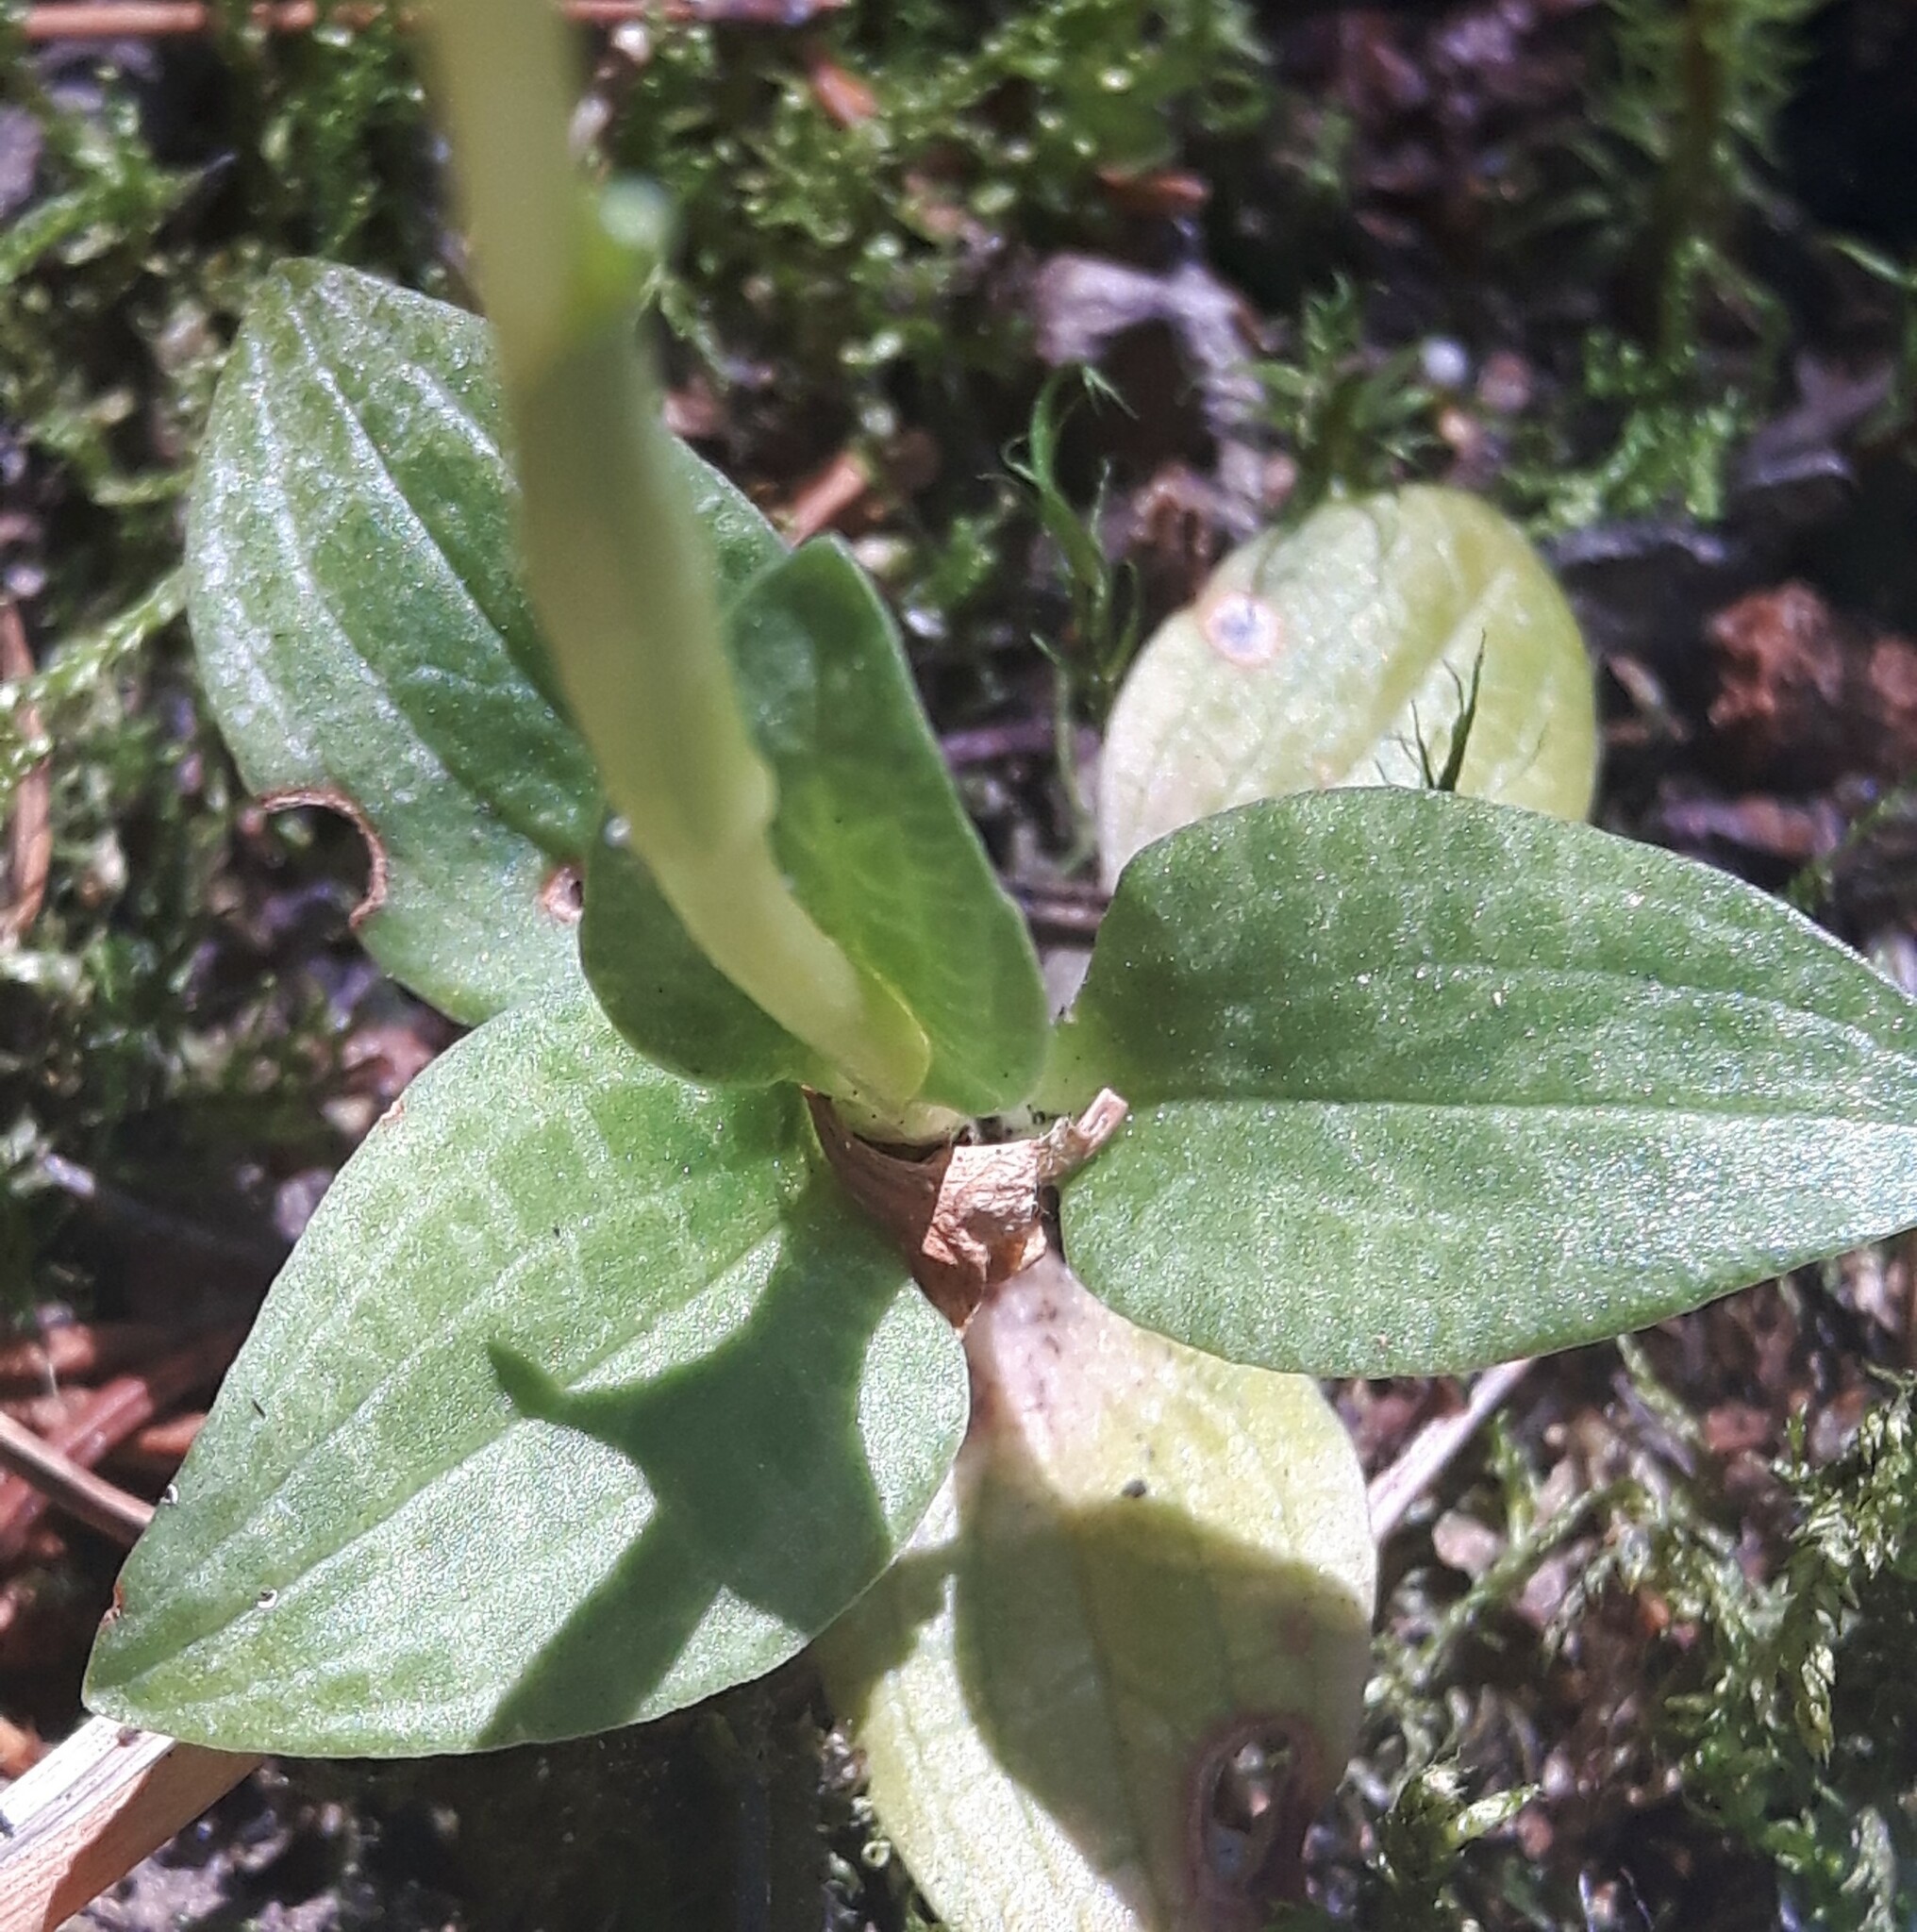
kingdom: Plantae
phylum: Tracheophyta
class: Liliopsida
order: Asparagales
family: Orchidaceae
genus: Goodyera
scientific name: Goodyera repens
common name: Creeping lady's-tresses
